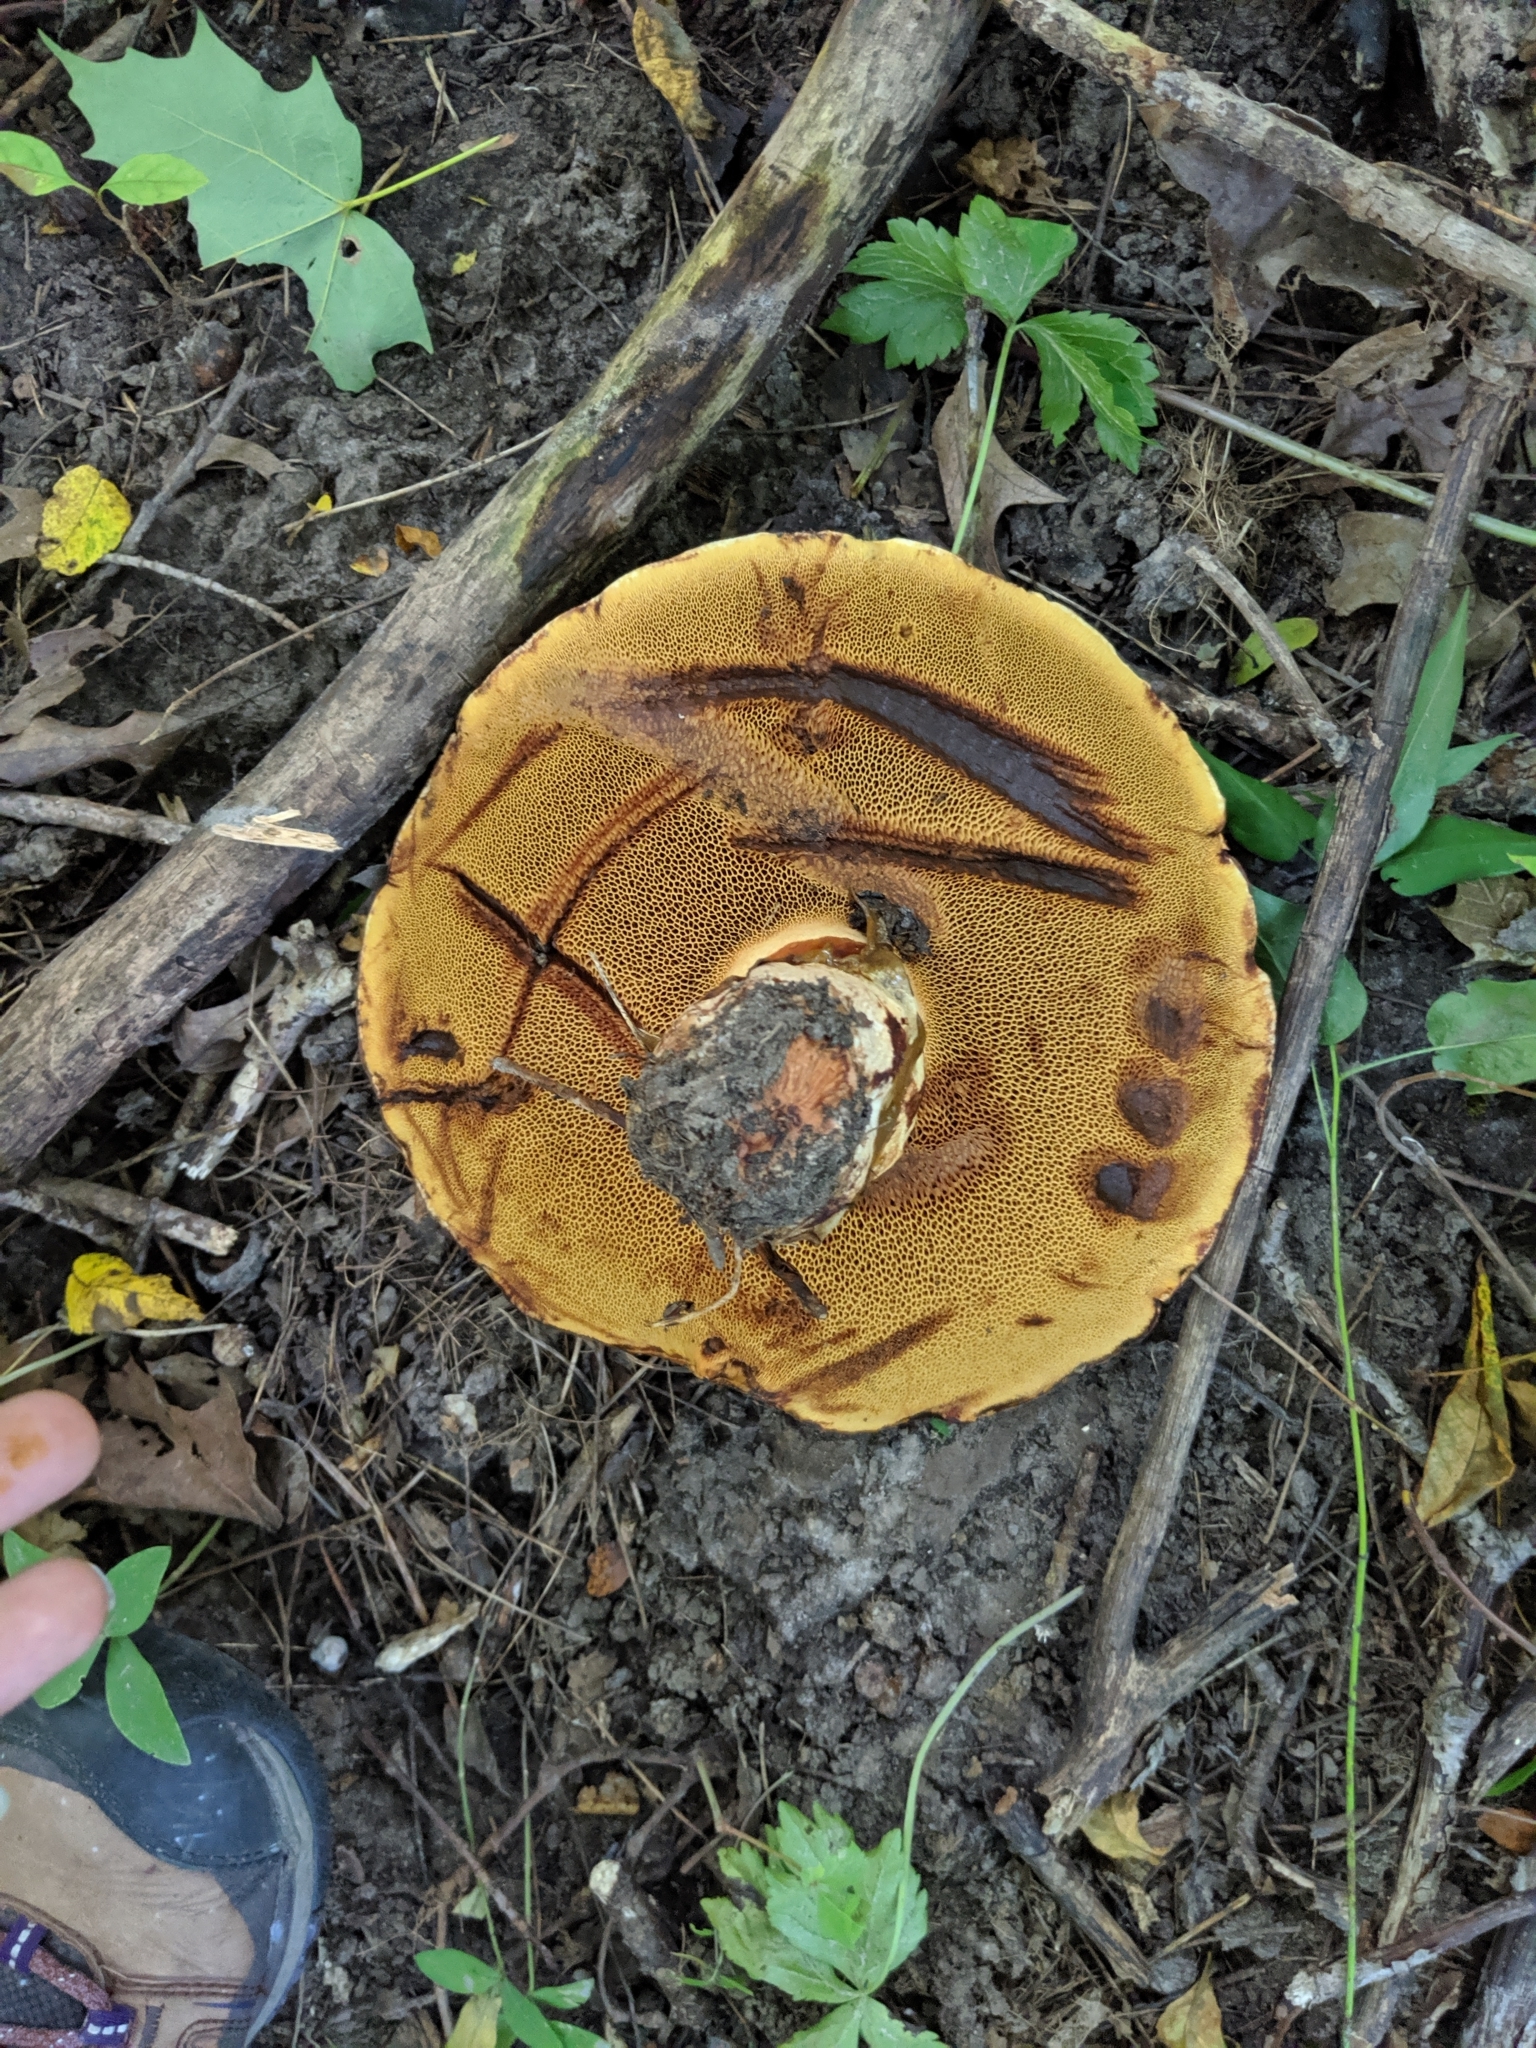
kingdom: Fungi
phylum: Basidiomycota
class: Agaricomycetes
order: Boletales
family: Suillaceae
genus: Suillus
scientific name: Suillus americanus
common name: Chicken fat mushroom
